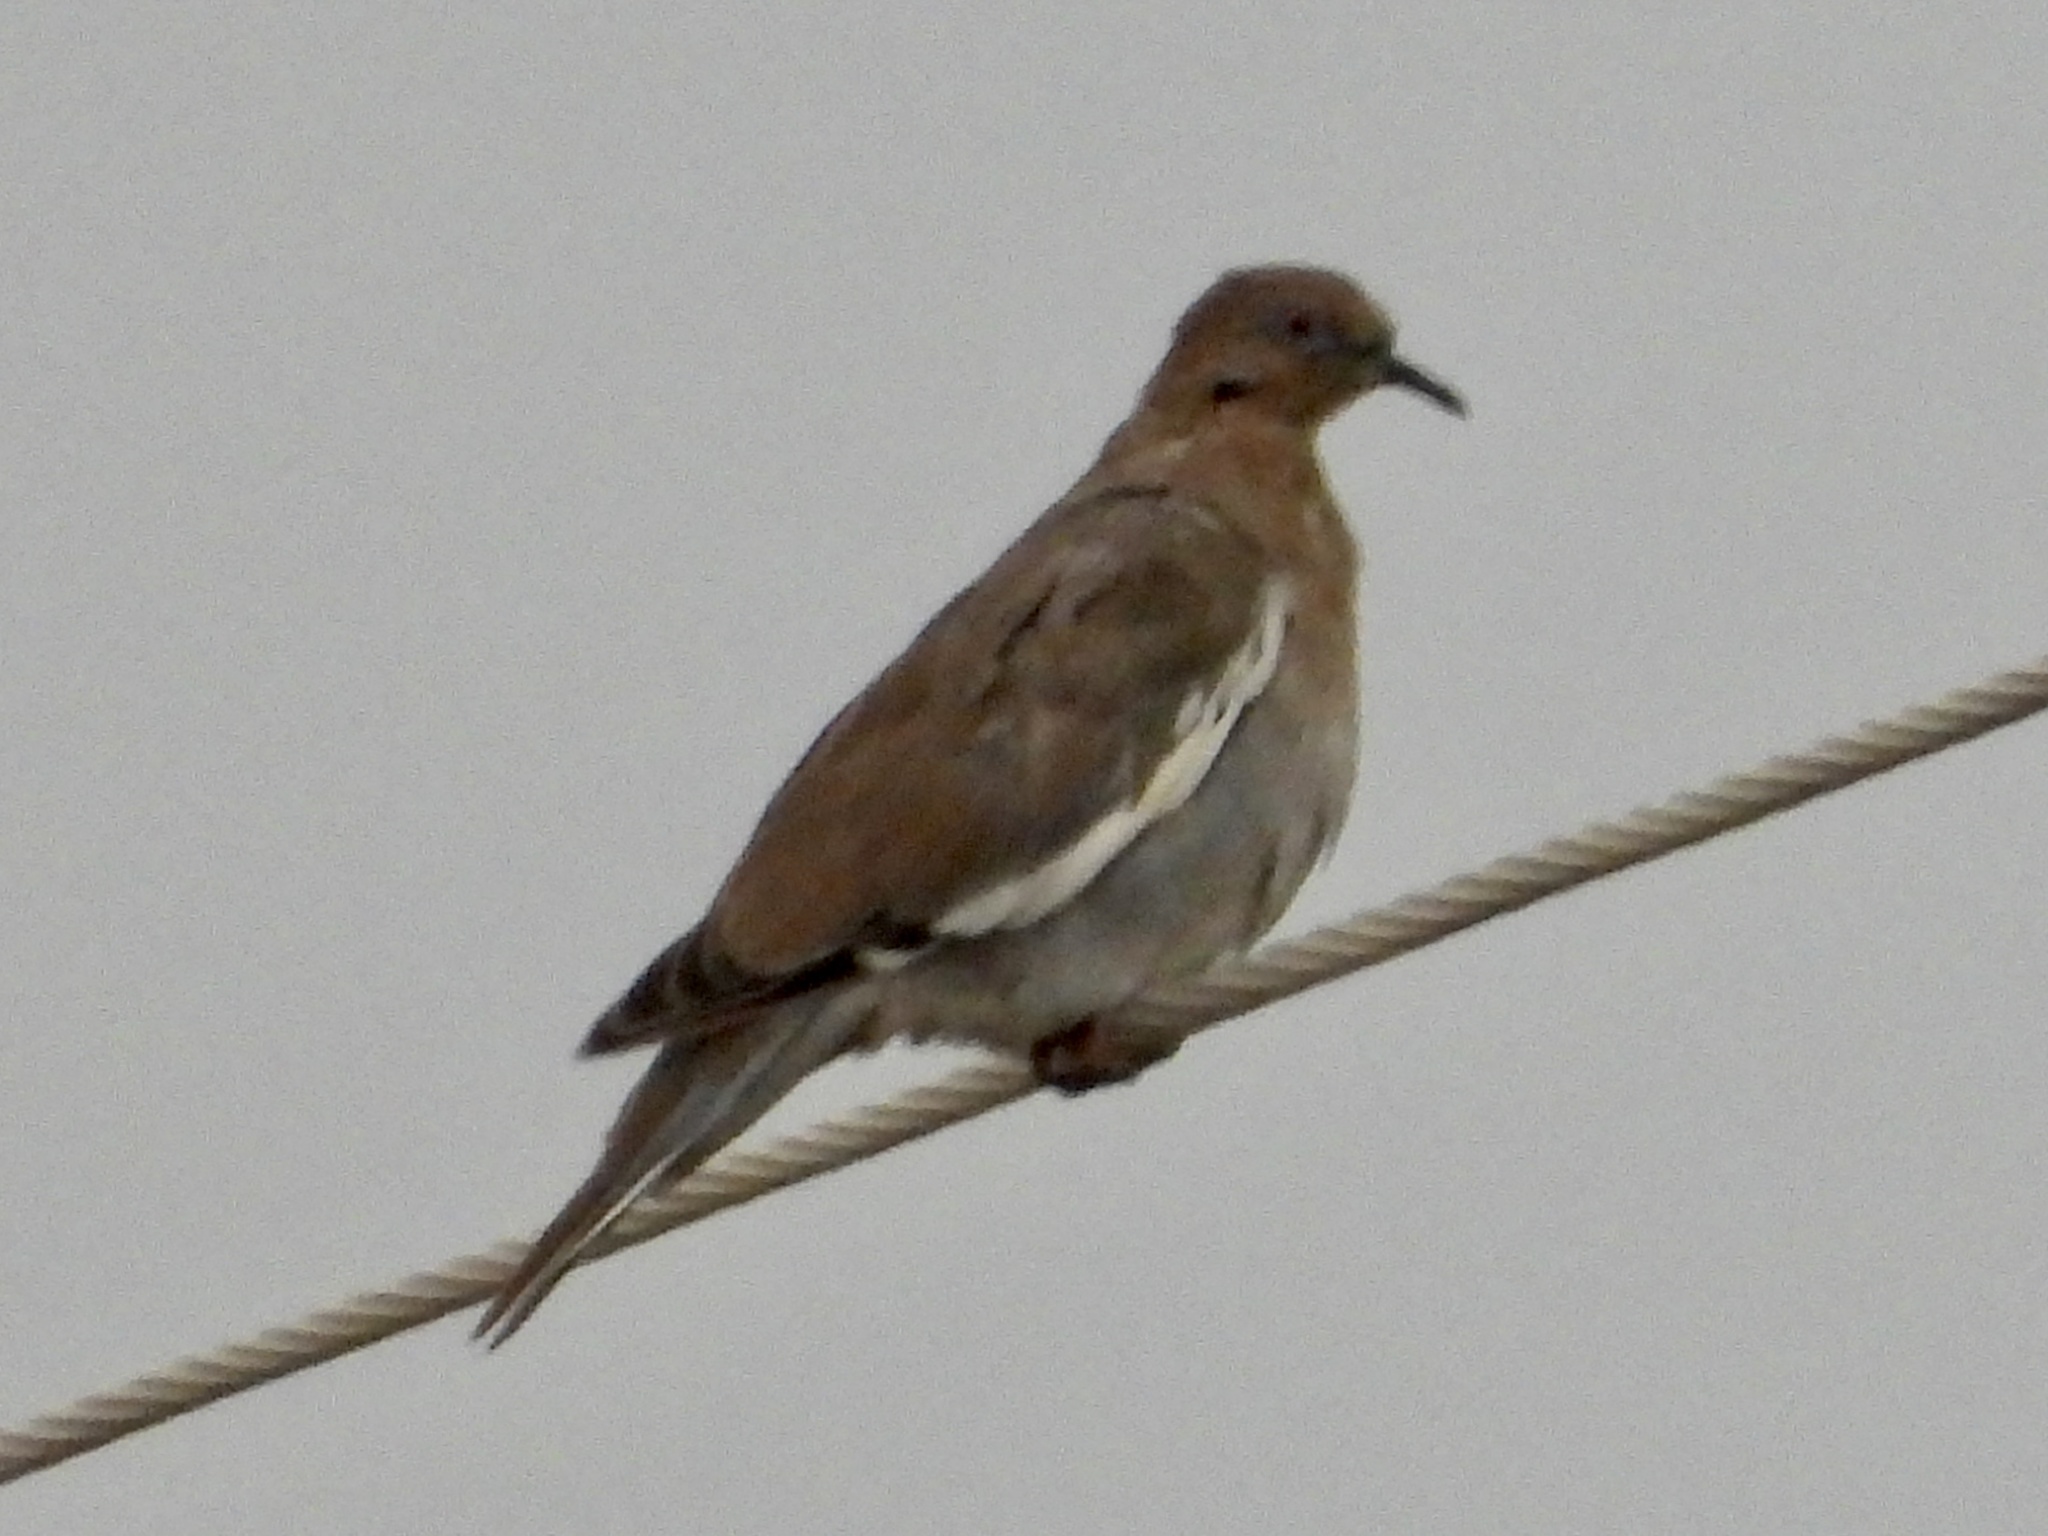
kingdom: Animalia
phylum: Chordata
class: Aves
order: Columbiformes
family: Columbidae
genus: Zenaida
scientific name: Zenaida asiatica
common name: White-winged dove
